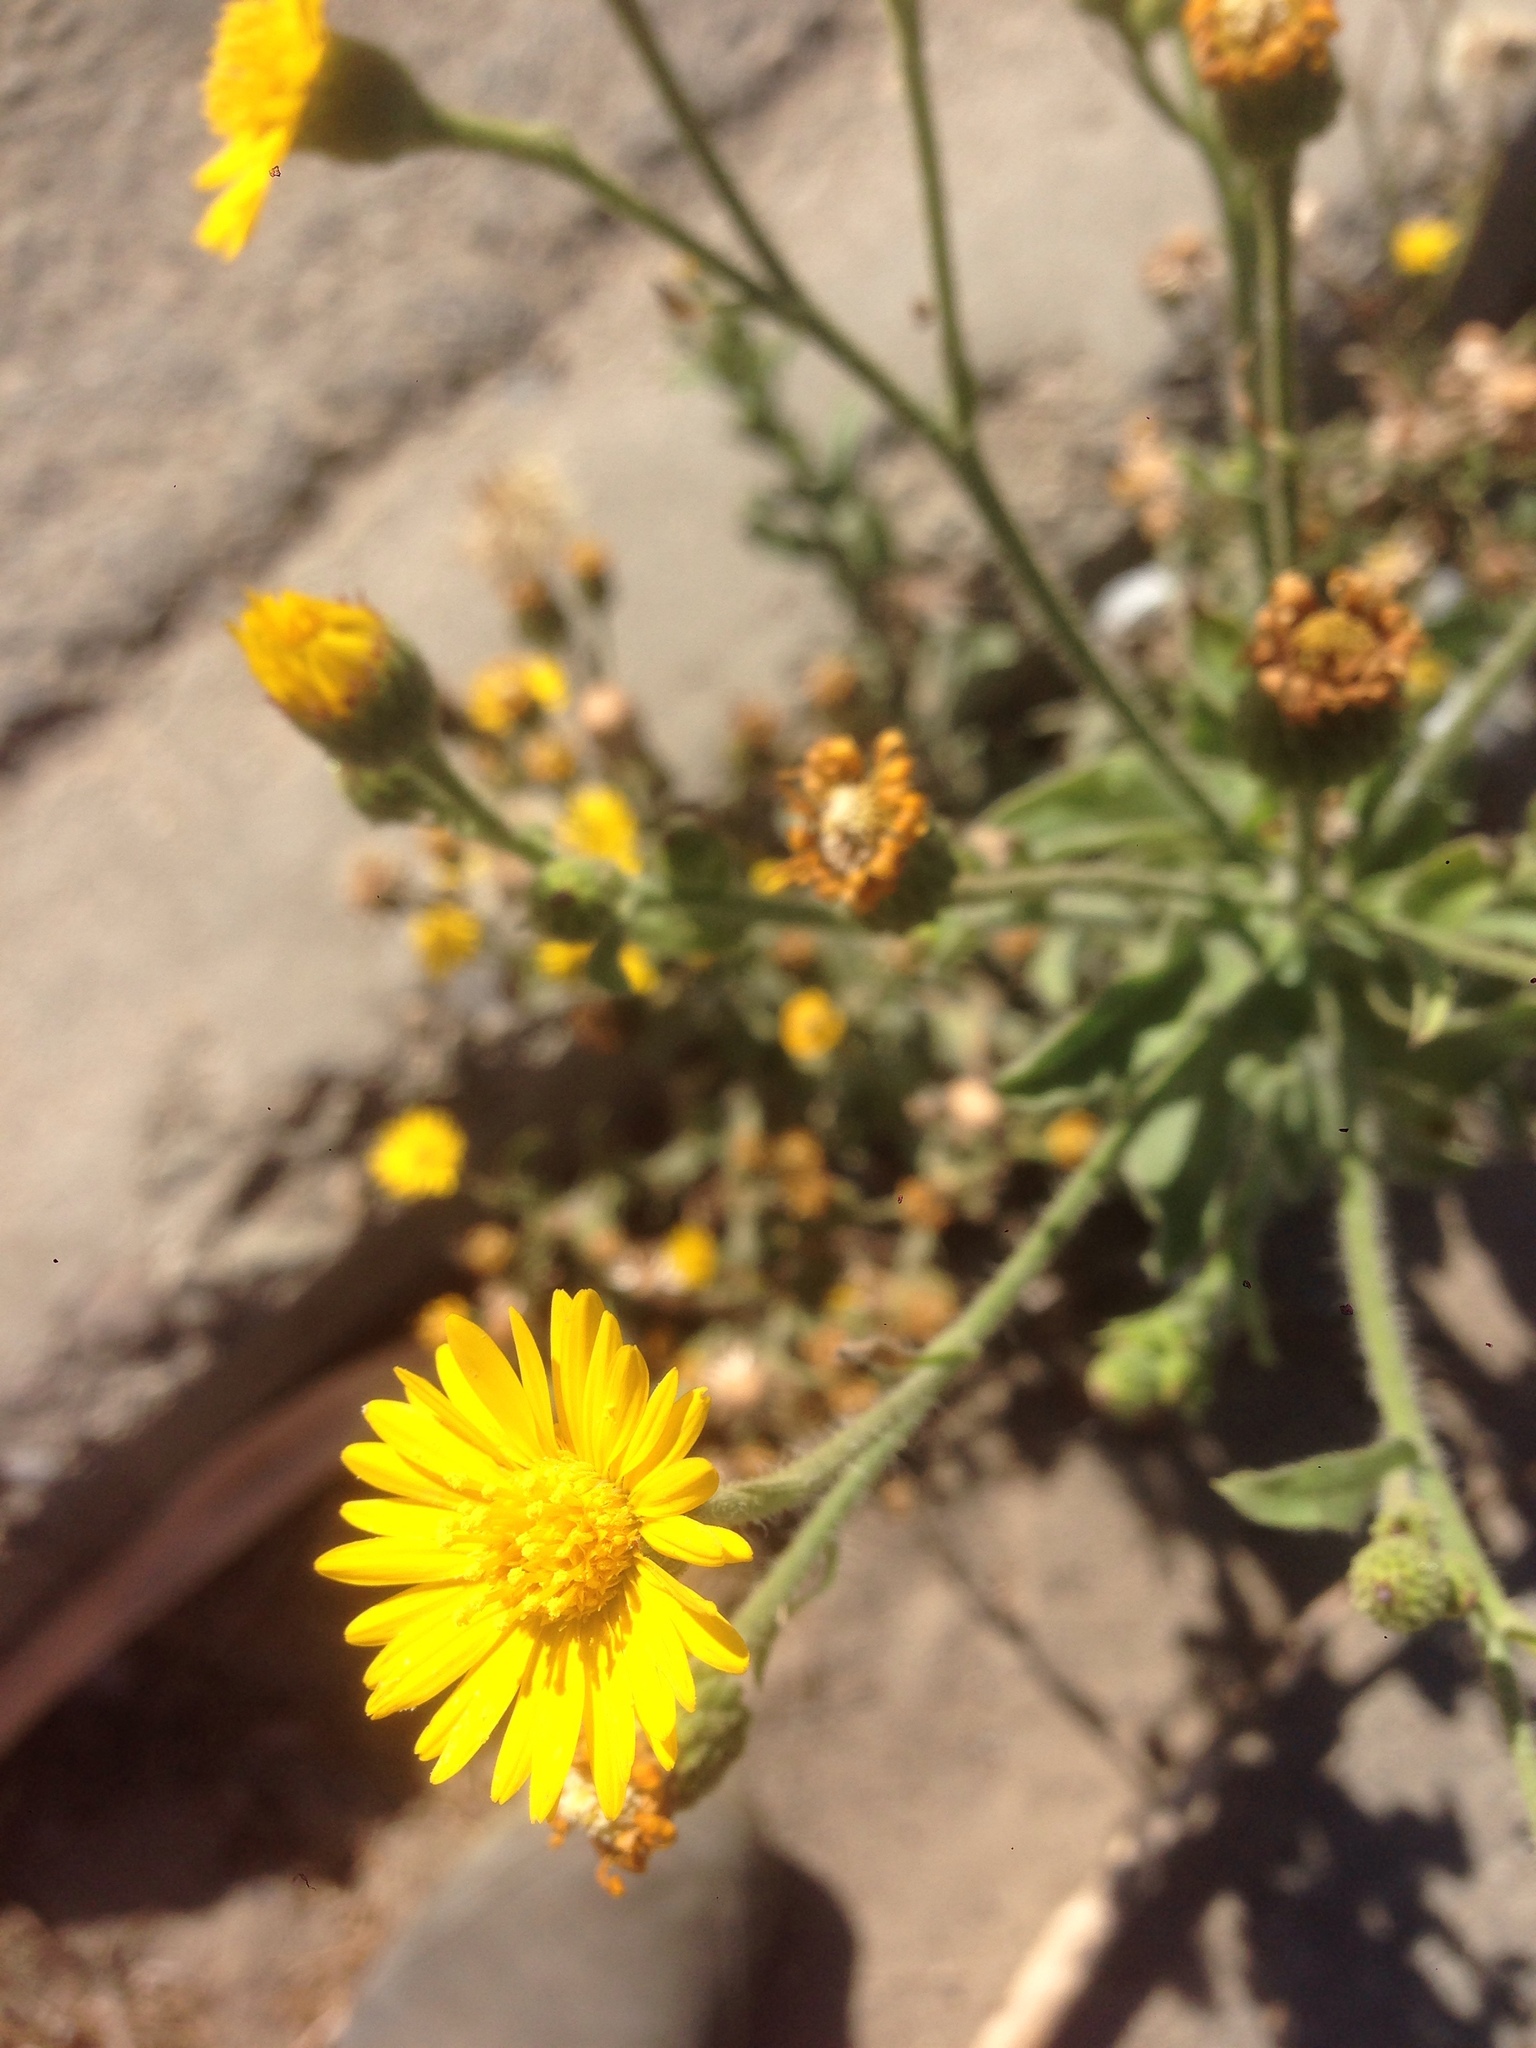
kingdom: Plantae
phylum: Tracheophyta
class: Magnoliopsida
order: Asterales
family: Asteraceae
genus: Heterotheca
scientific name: Heterotheca grandiflora
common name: Telegraphweed
